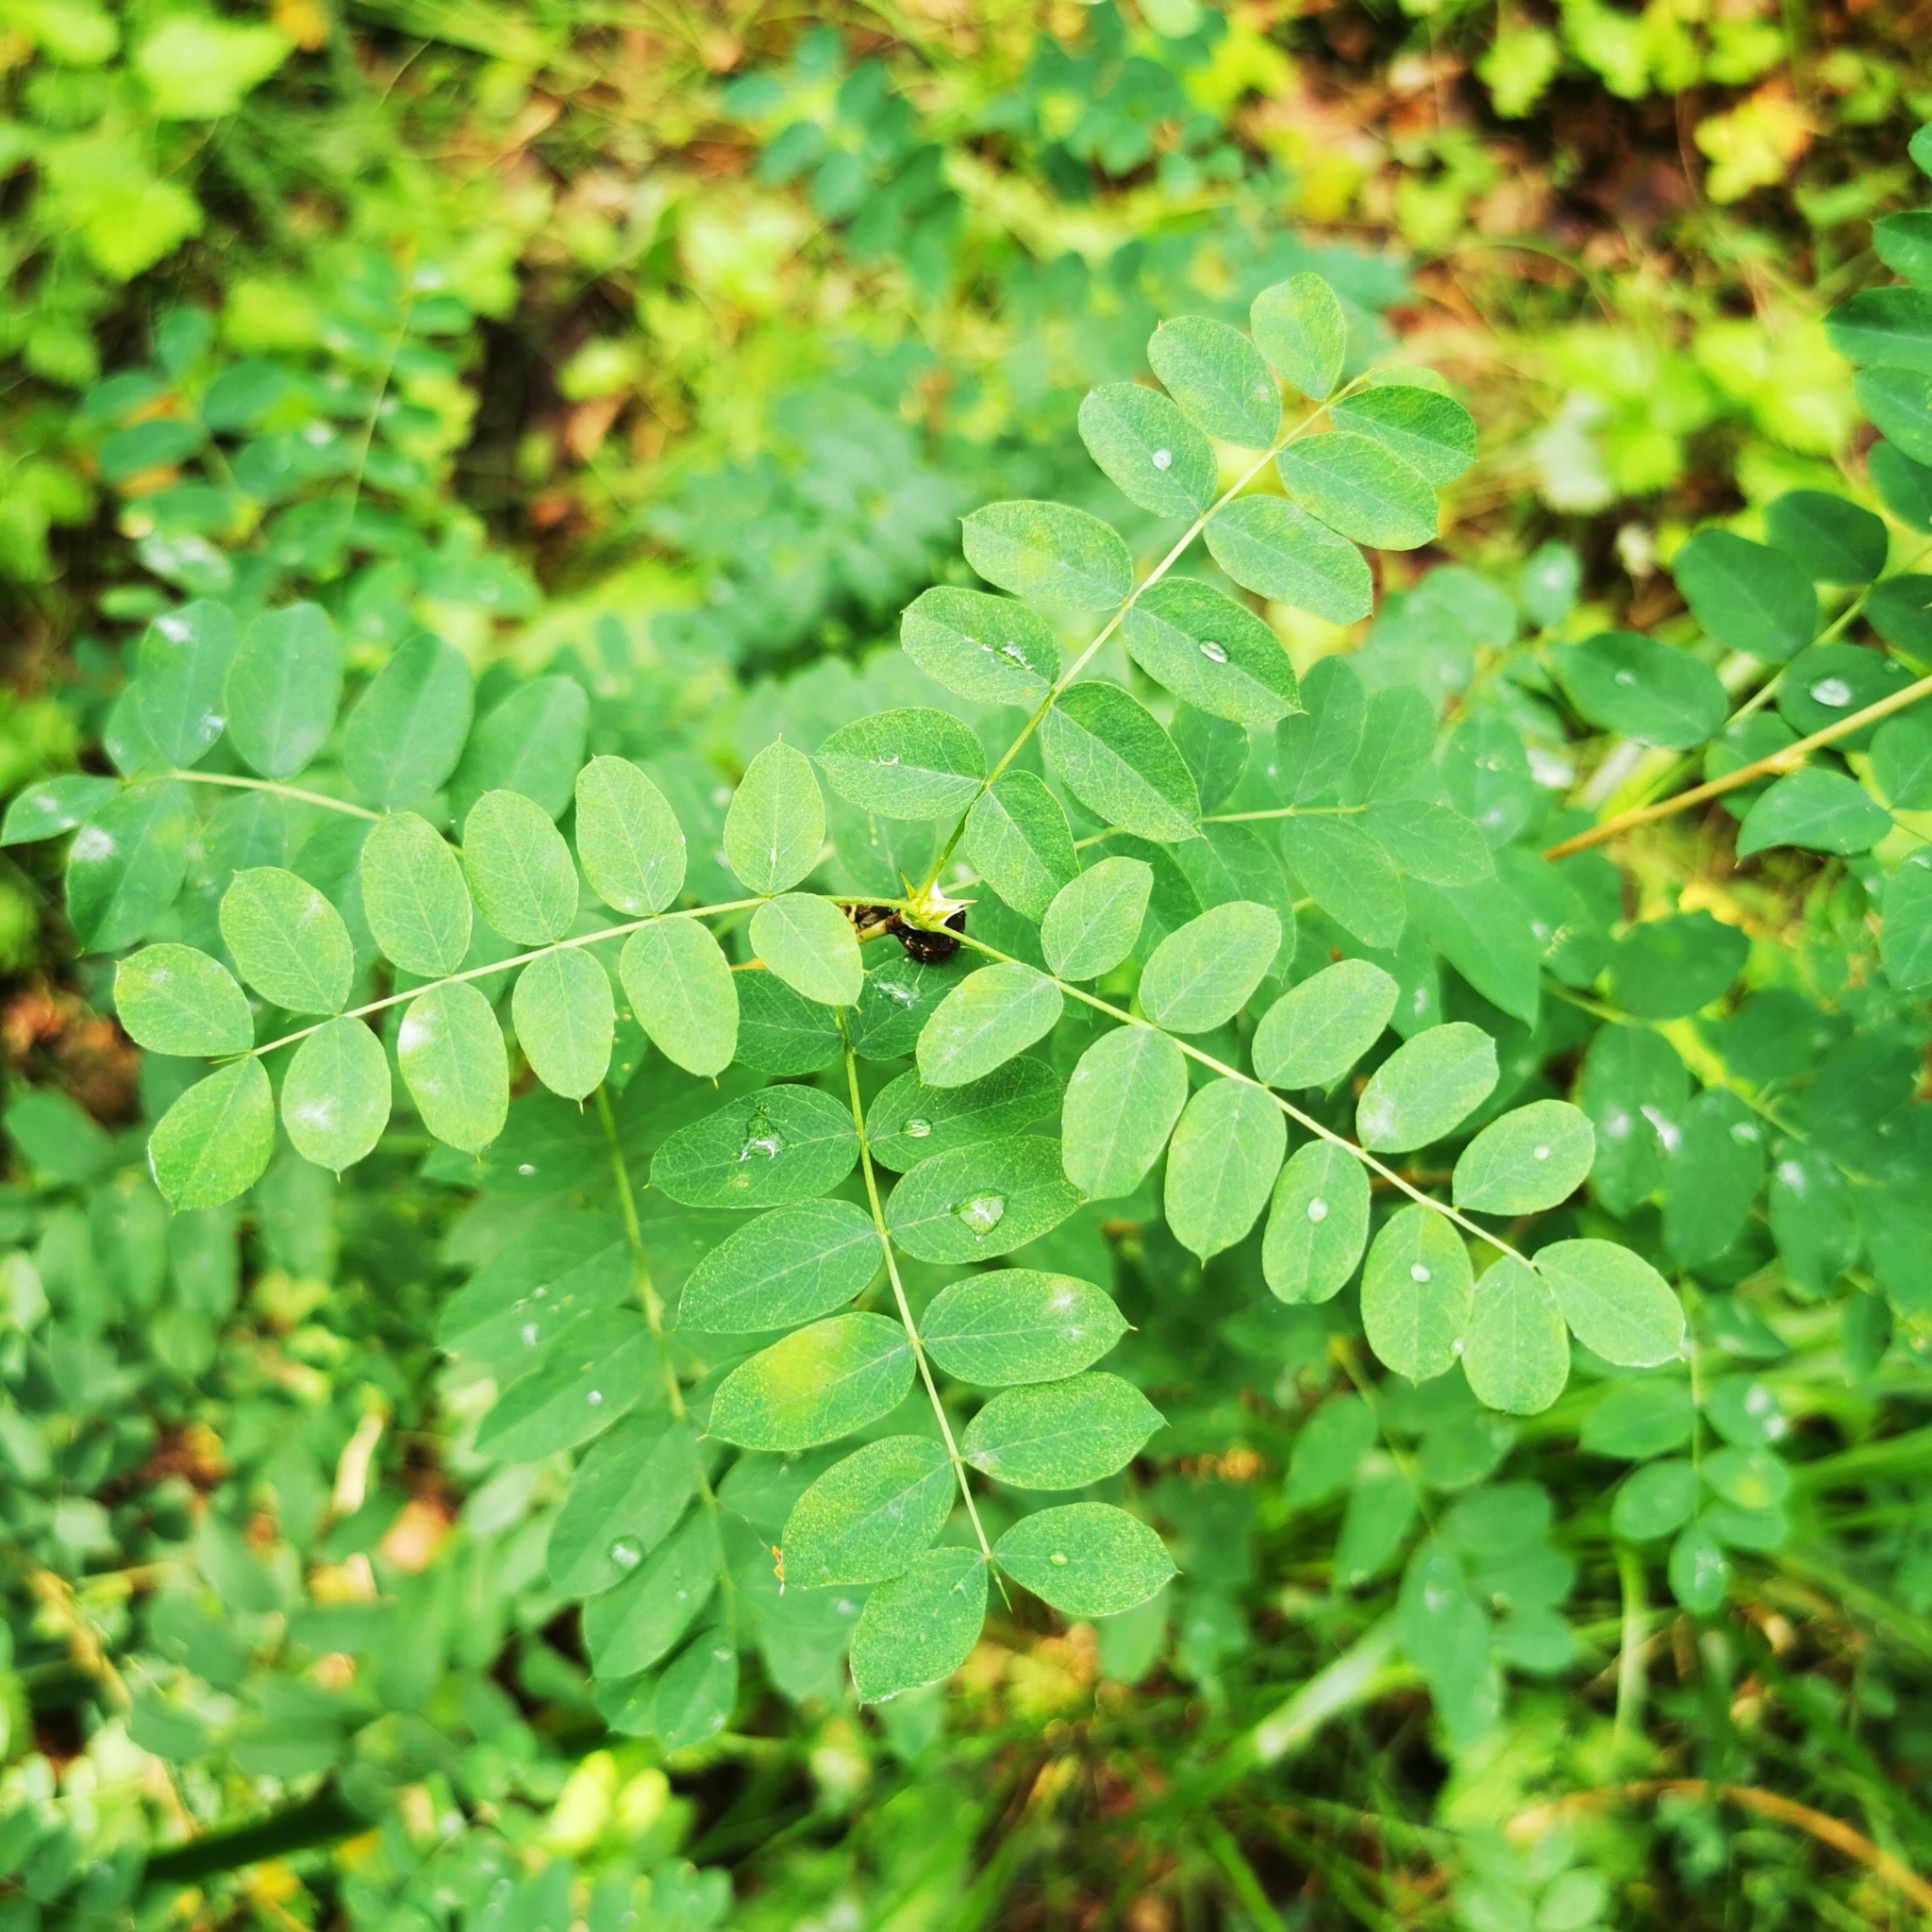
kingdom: Plantae
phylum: Tracheophyta
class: Magnoliopsida
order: Fabales
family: Fabaceae
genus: Caragana
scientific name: Caragana arborescens
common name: Siberian peashrub
